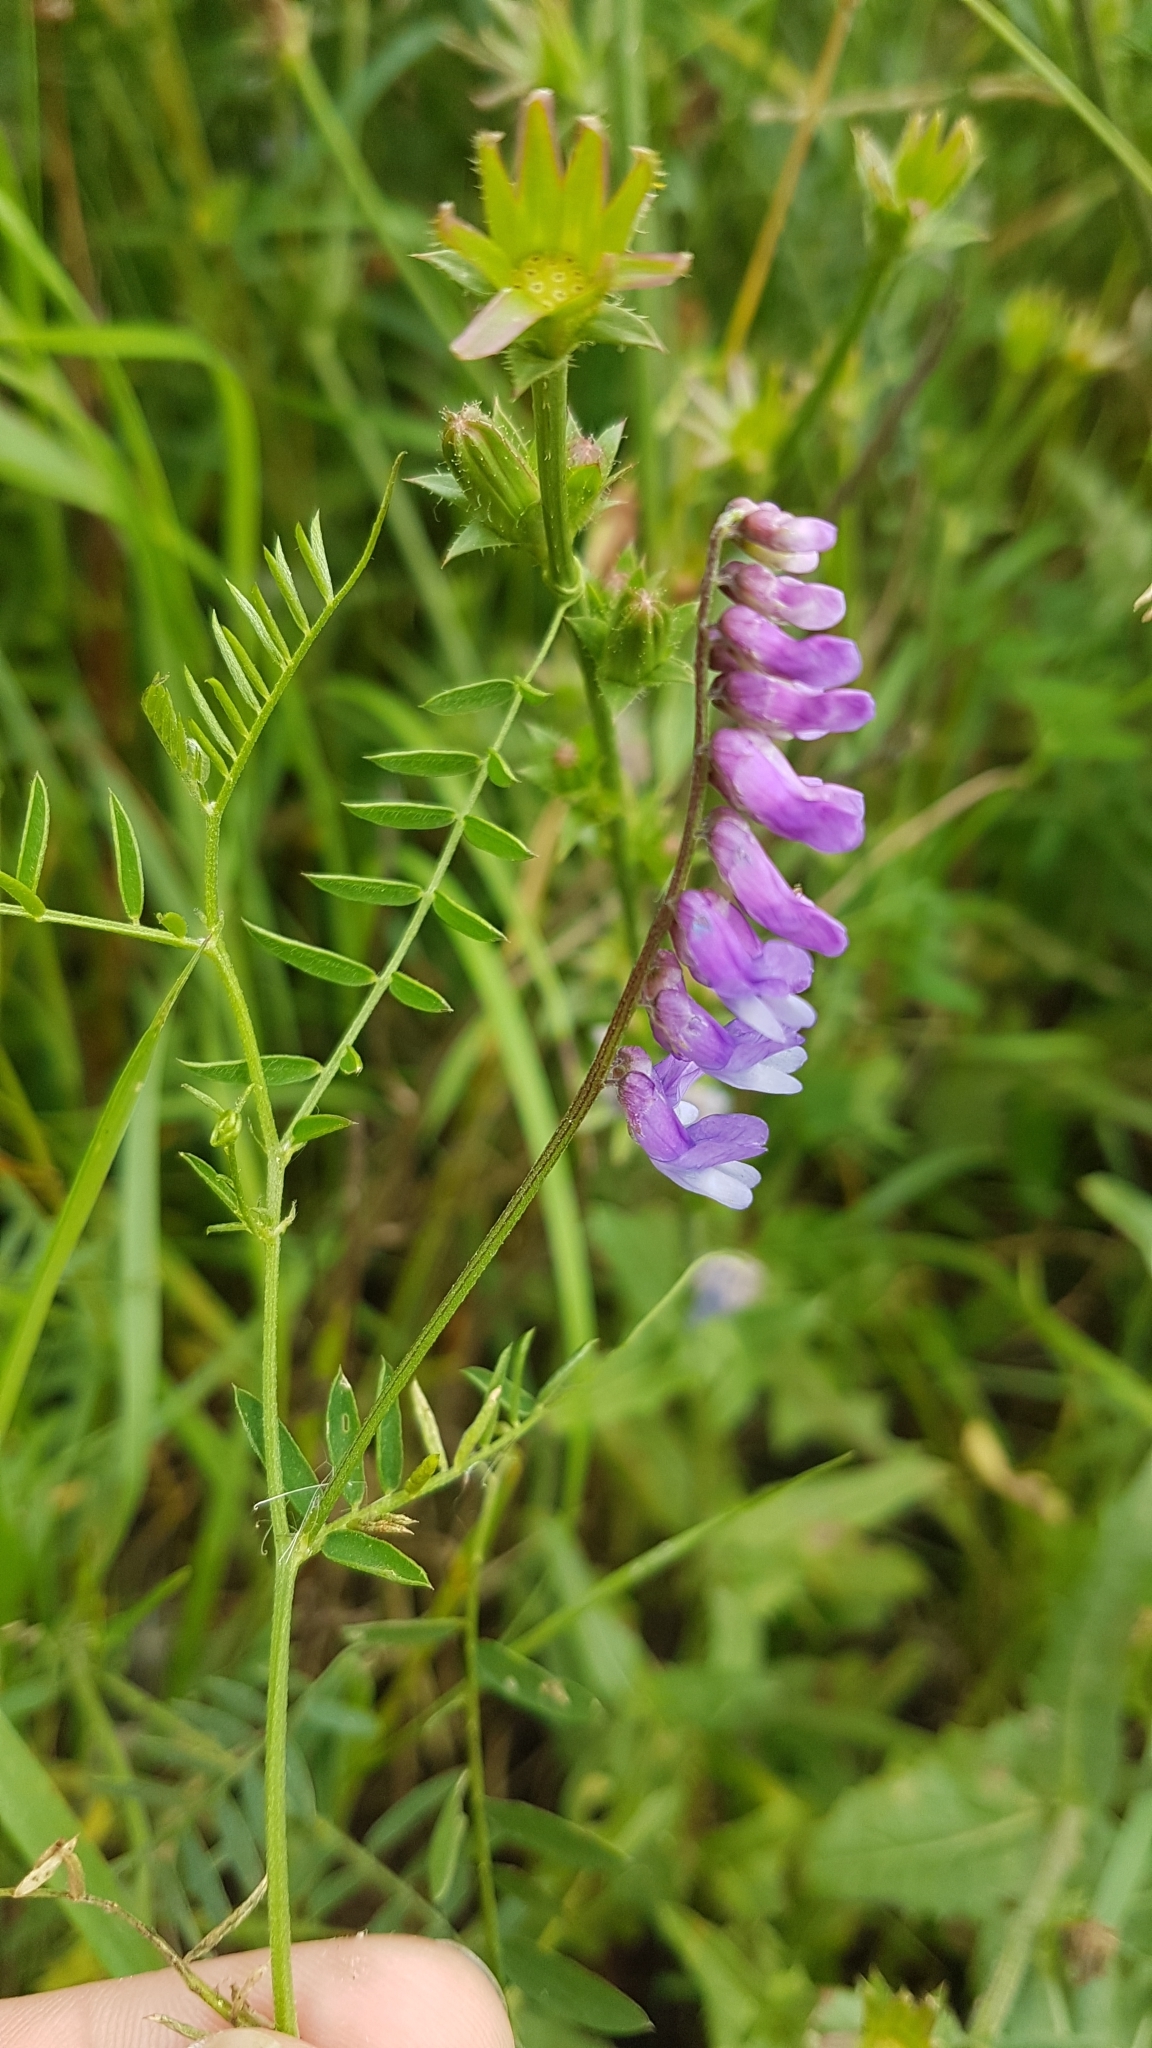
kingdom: Plantae
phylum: Tracheophyta
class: Magnoliopsida
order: Fabales
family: Fabaceae
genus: Vicia
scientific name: Vicia cracca
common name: Bird vetch
